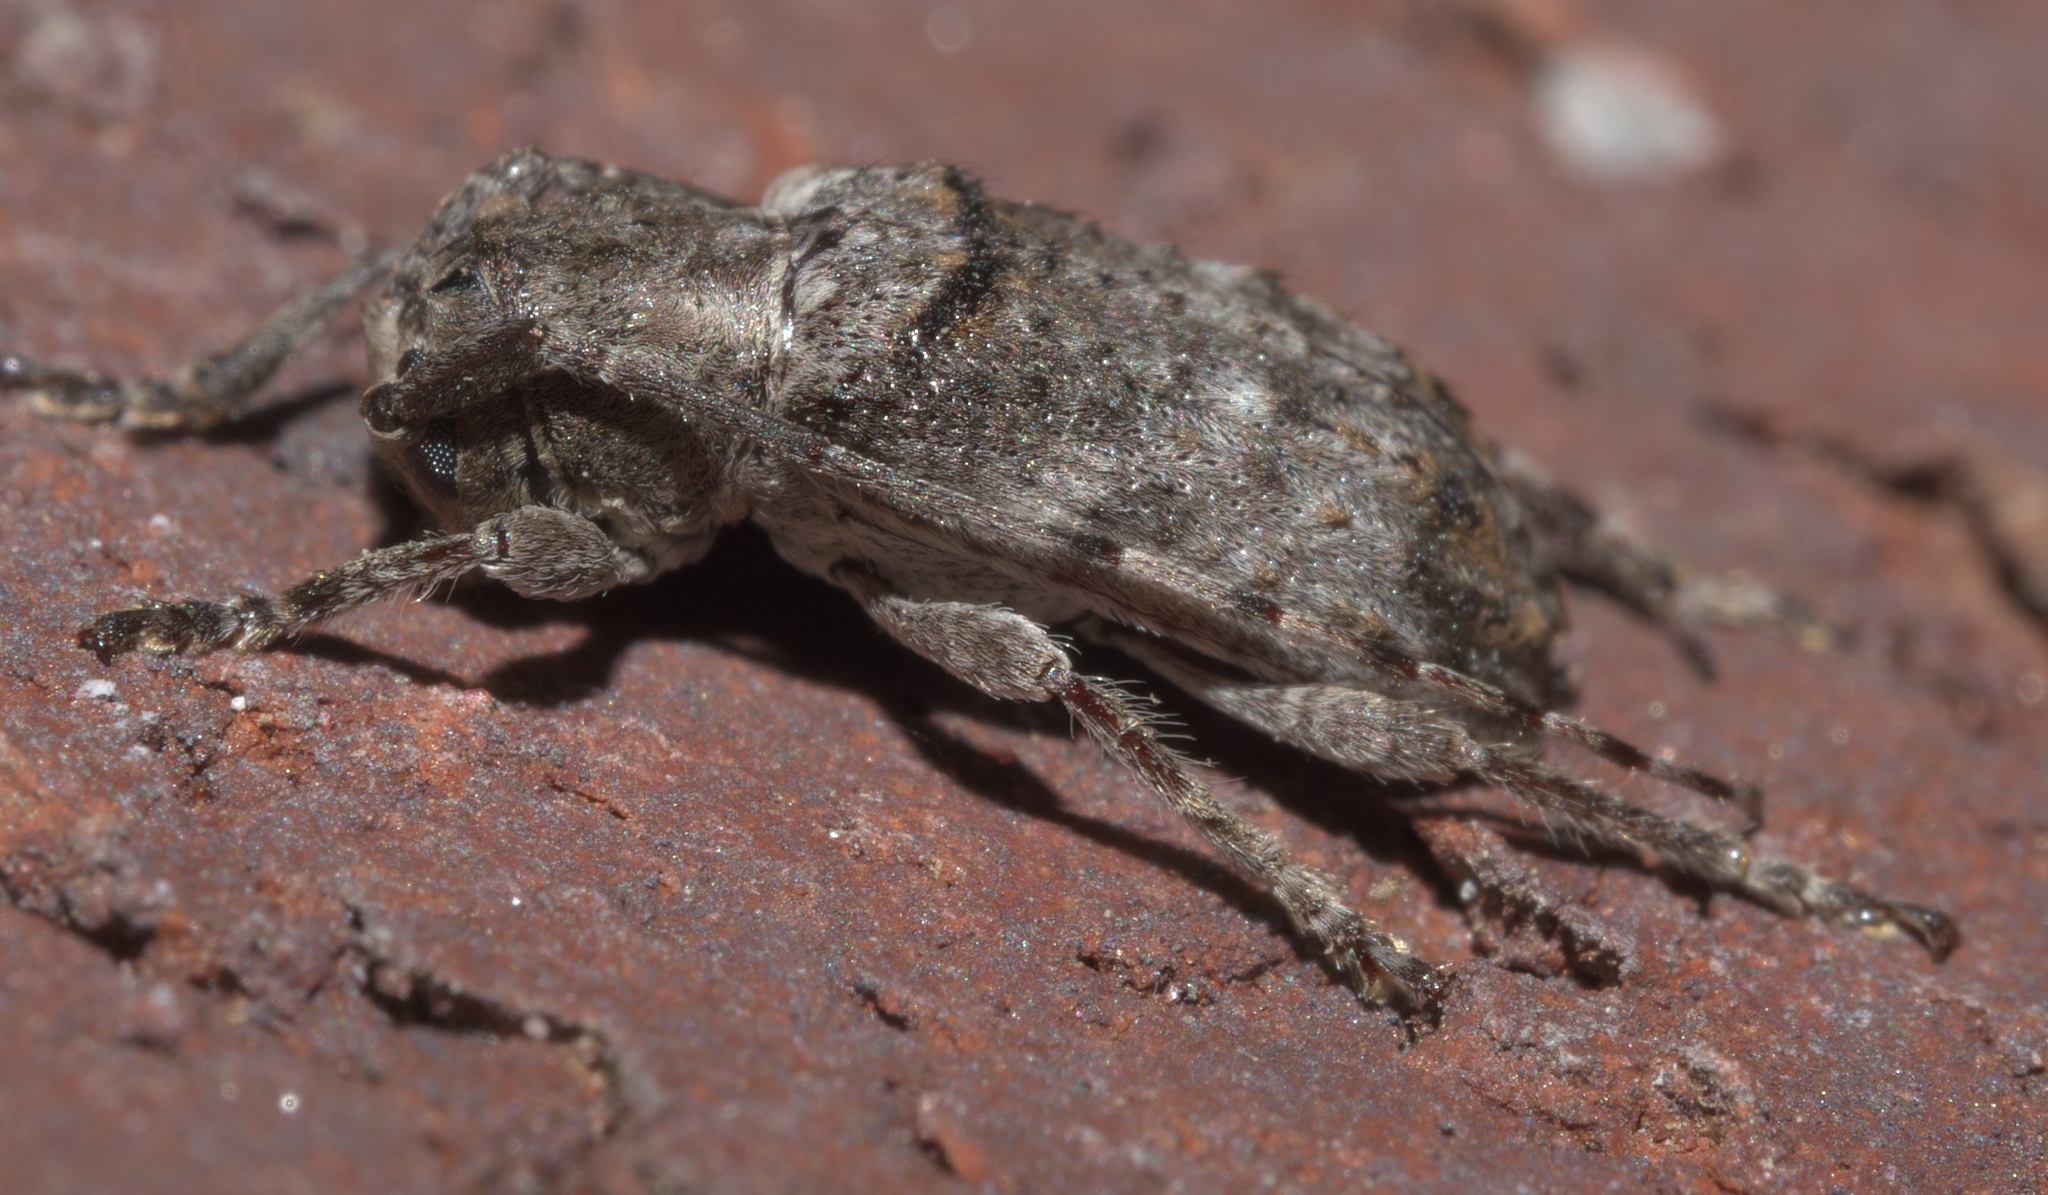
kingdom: Animalia
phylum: Arthropoda
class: Insecta
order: Coleoptera
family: Cerambycidae
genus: Ecyrus
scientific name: Ecyrus dasycerus
